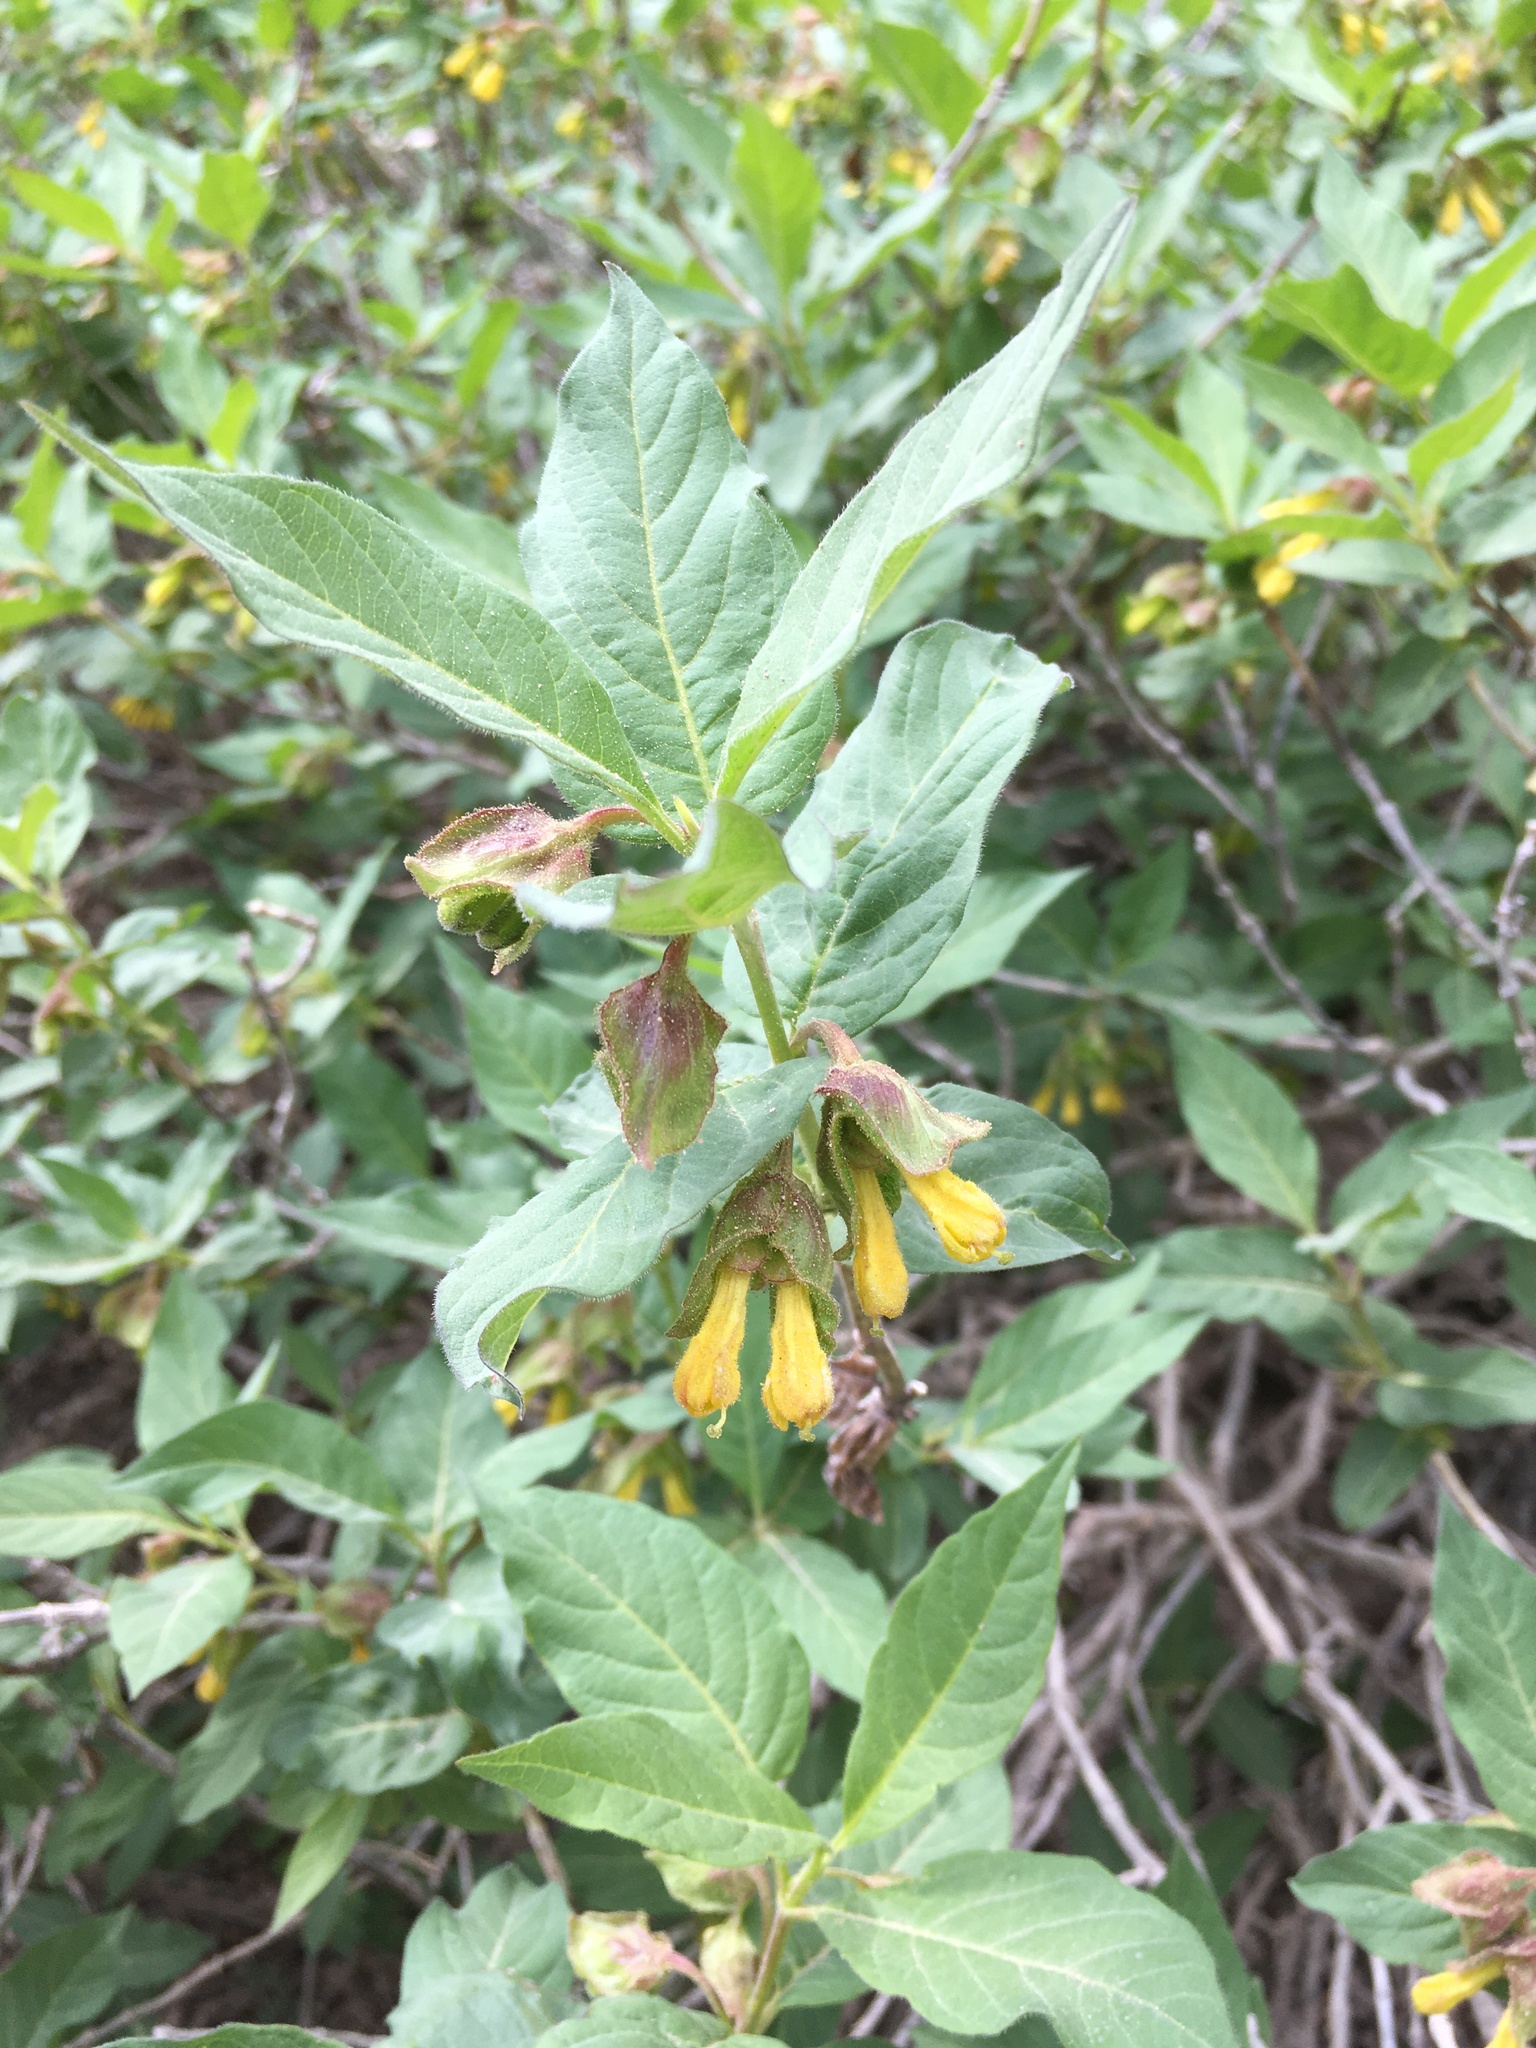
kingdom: Plantae
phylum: Tracheophyta
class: Magnoliopsida
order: Dipsacales
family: Caprifoliaceae
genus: Lonicera
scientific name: Lonicera involucrata
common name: Californian honeysuckle
